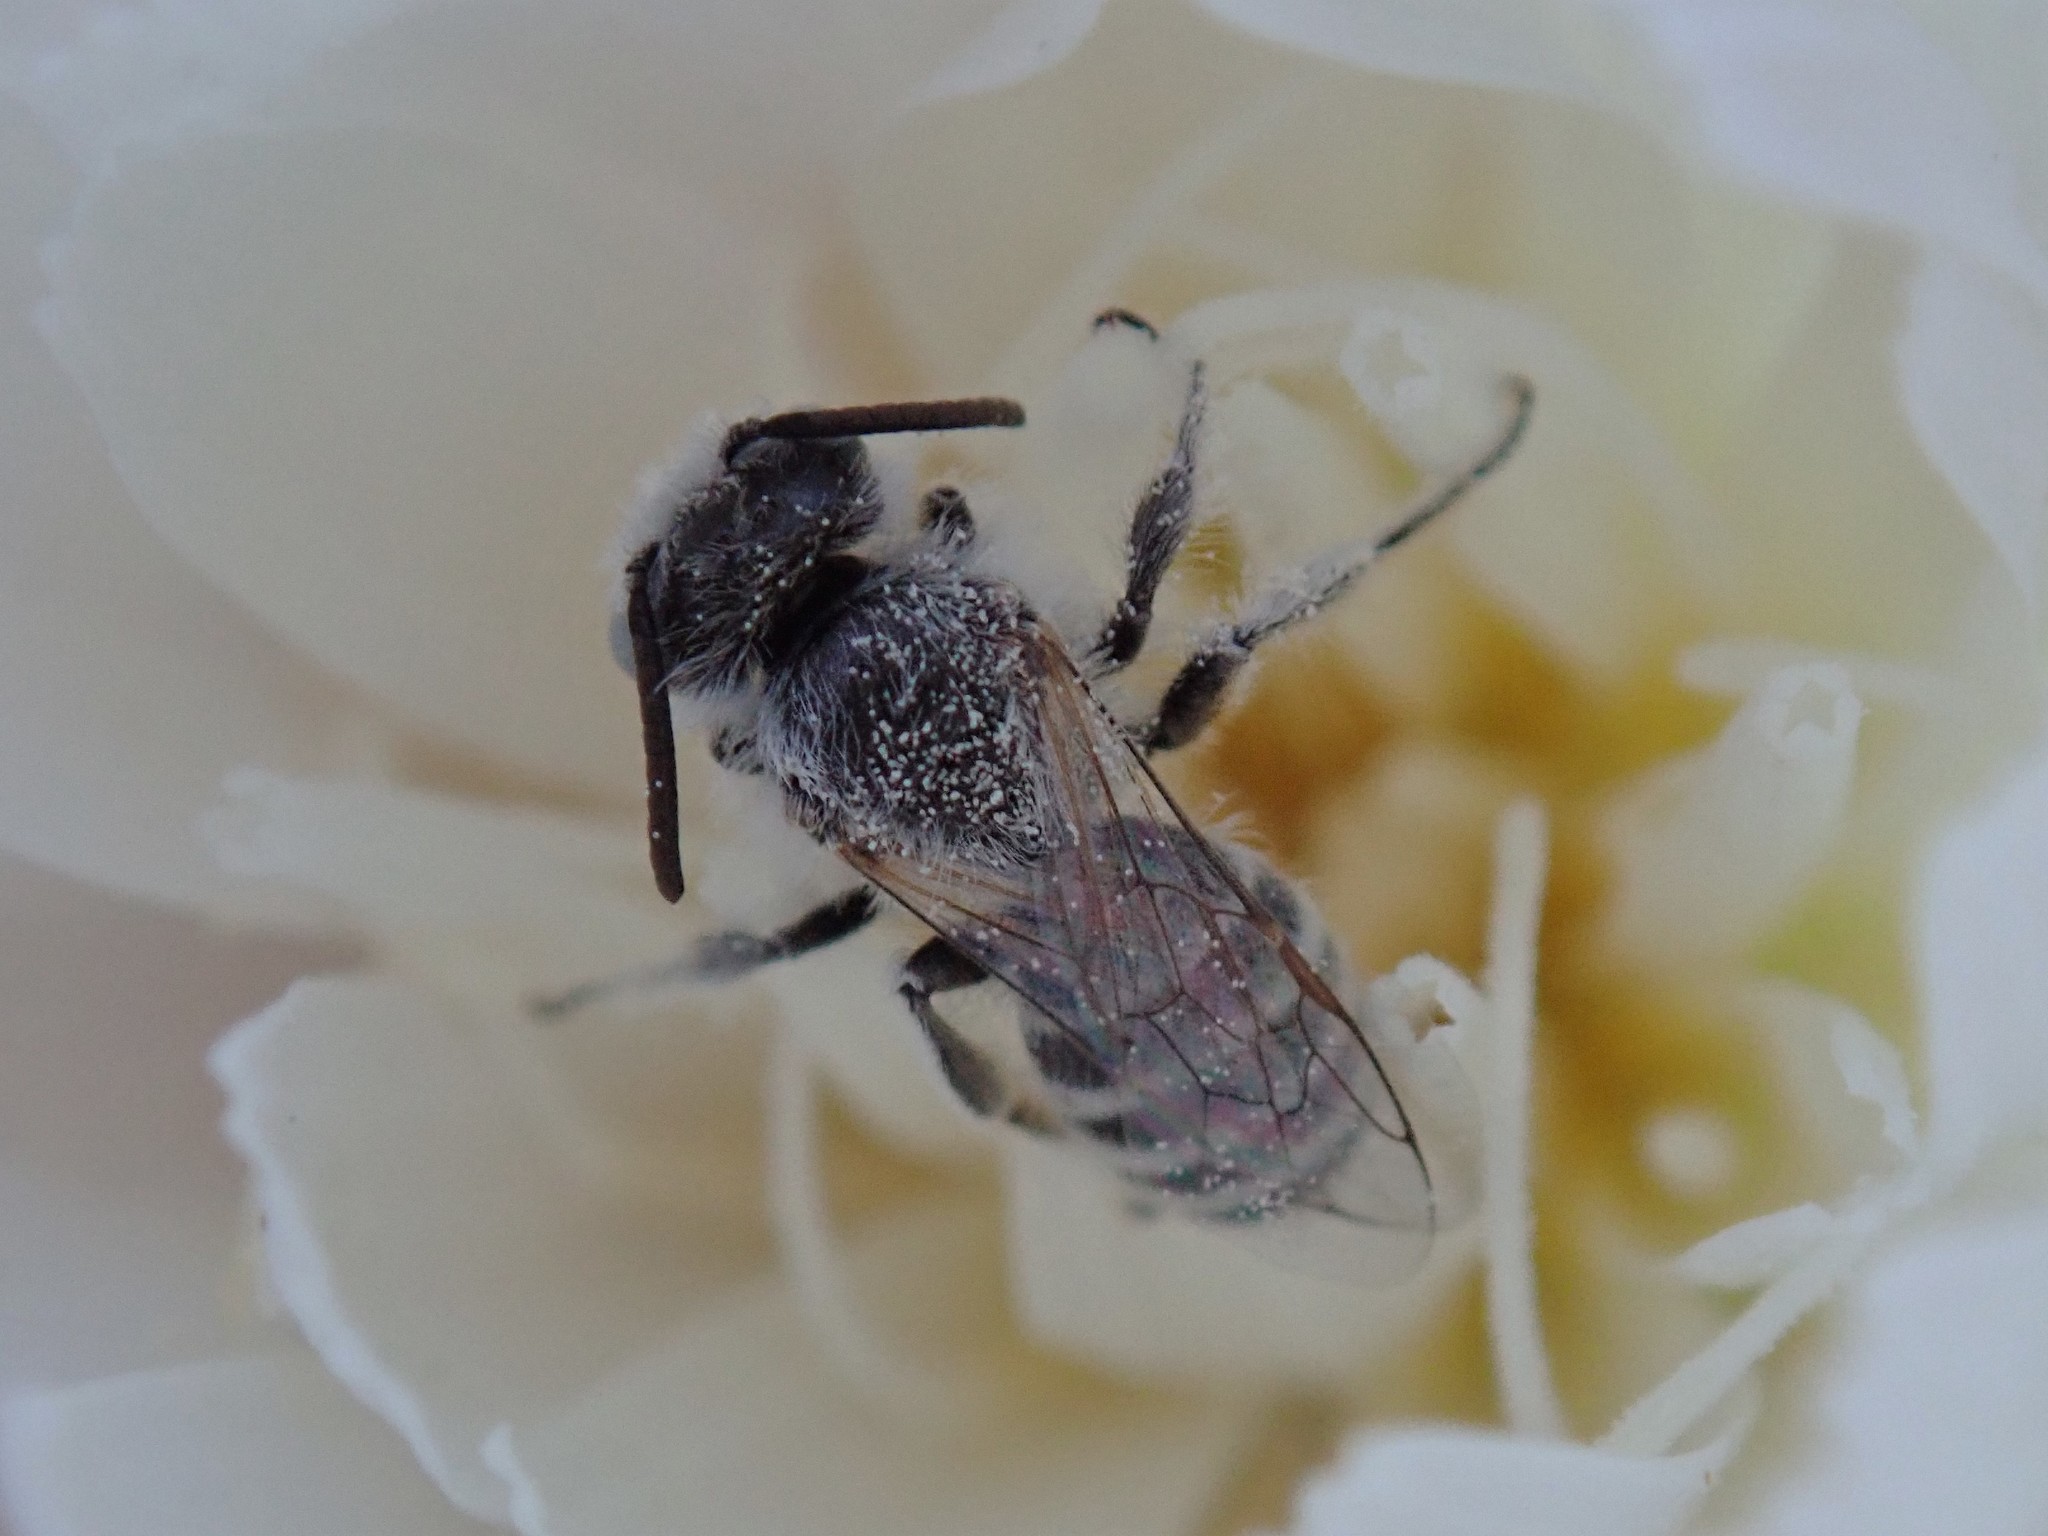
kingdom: Animalia
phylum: Arthropoda
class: Insecta
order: Hymenoptera
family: Melittidae
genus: Hesperapis
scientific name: Hesperapis
